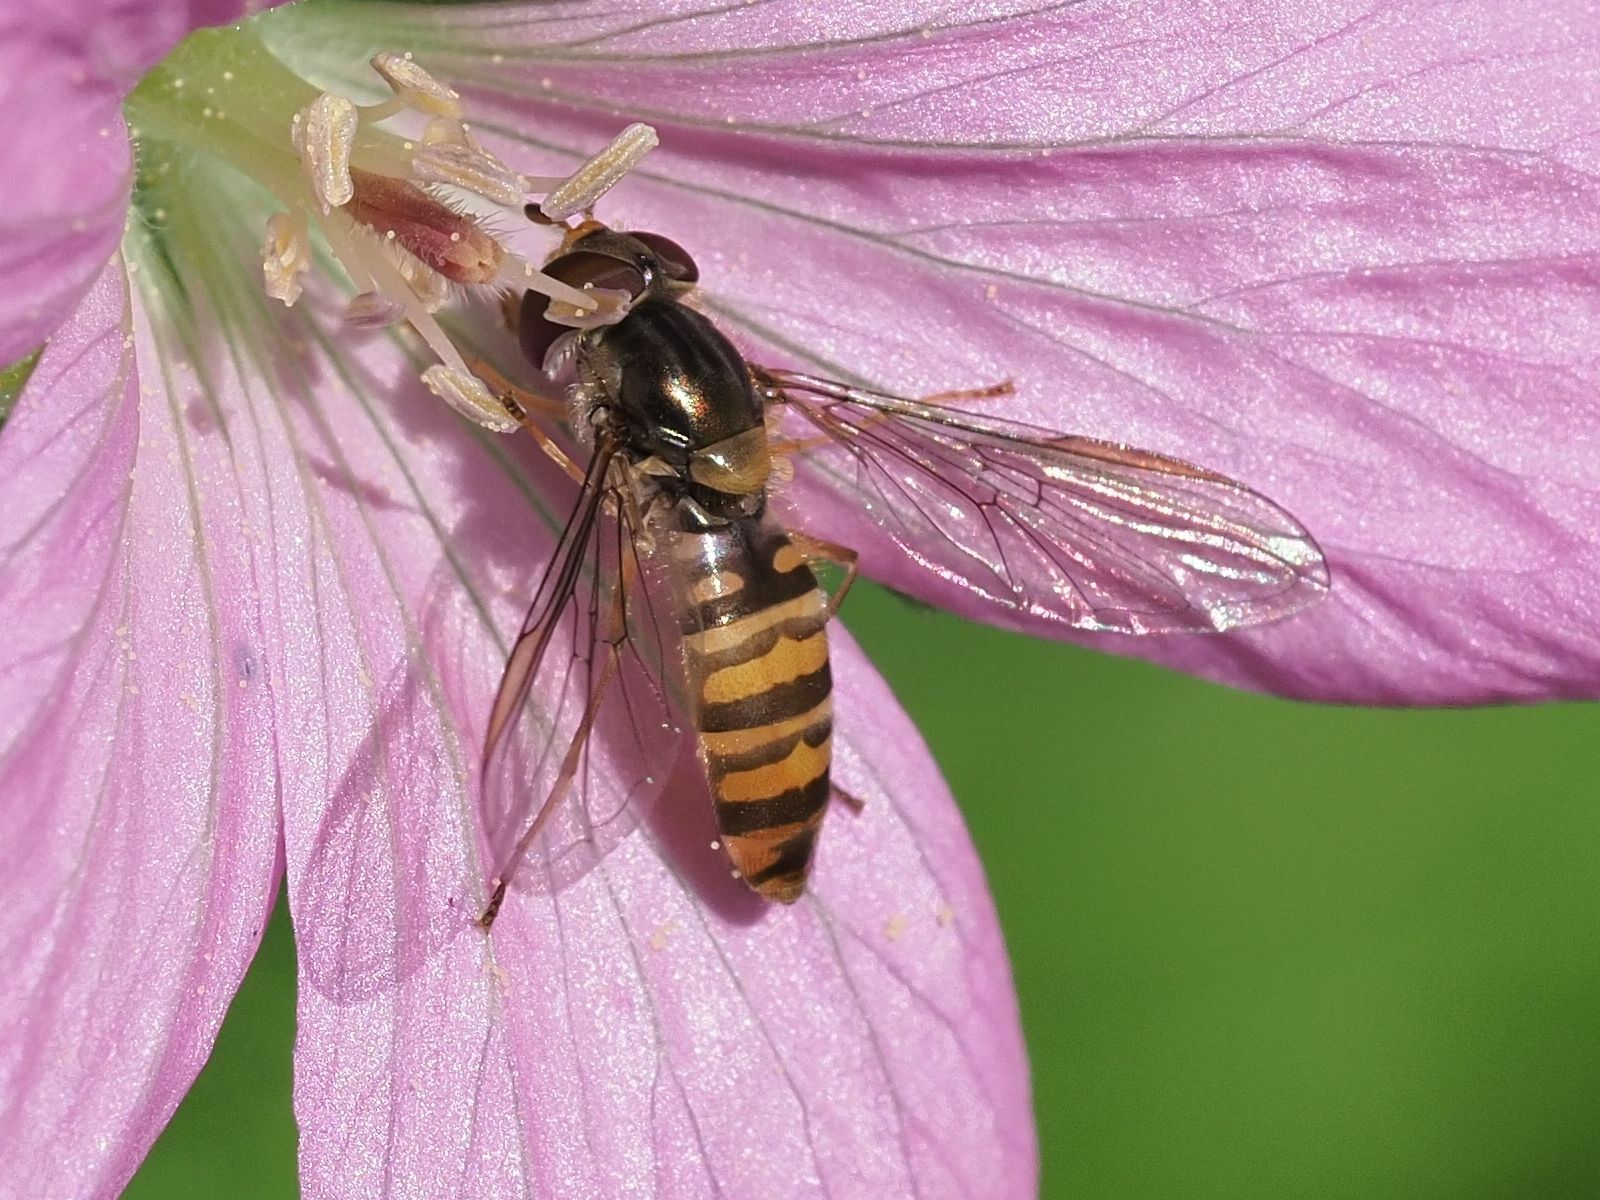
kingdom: Animalia
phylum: Arthropoda
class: Insecta
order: Diptera
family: Syrphidae
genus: Episyrphus
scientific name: Episyrphus balteatus
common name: Marmalade hoverfly
